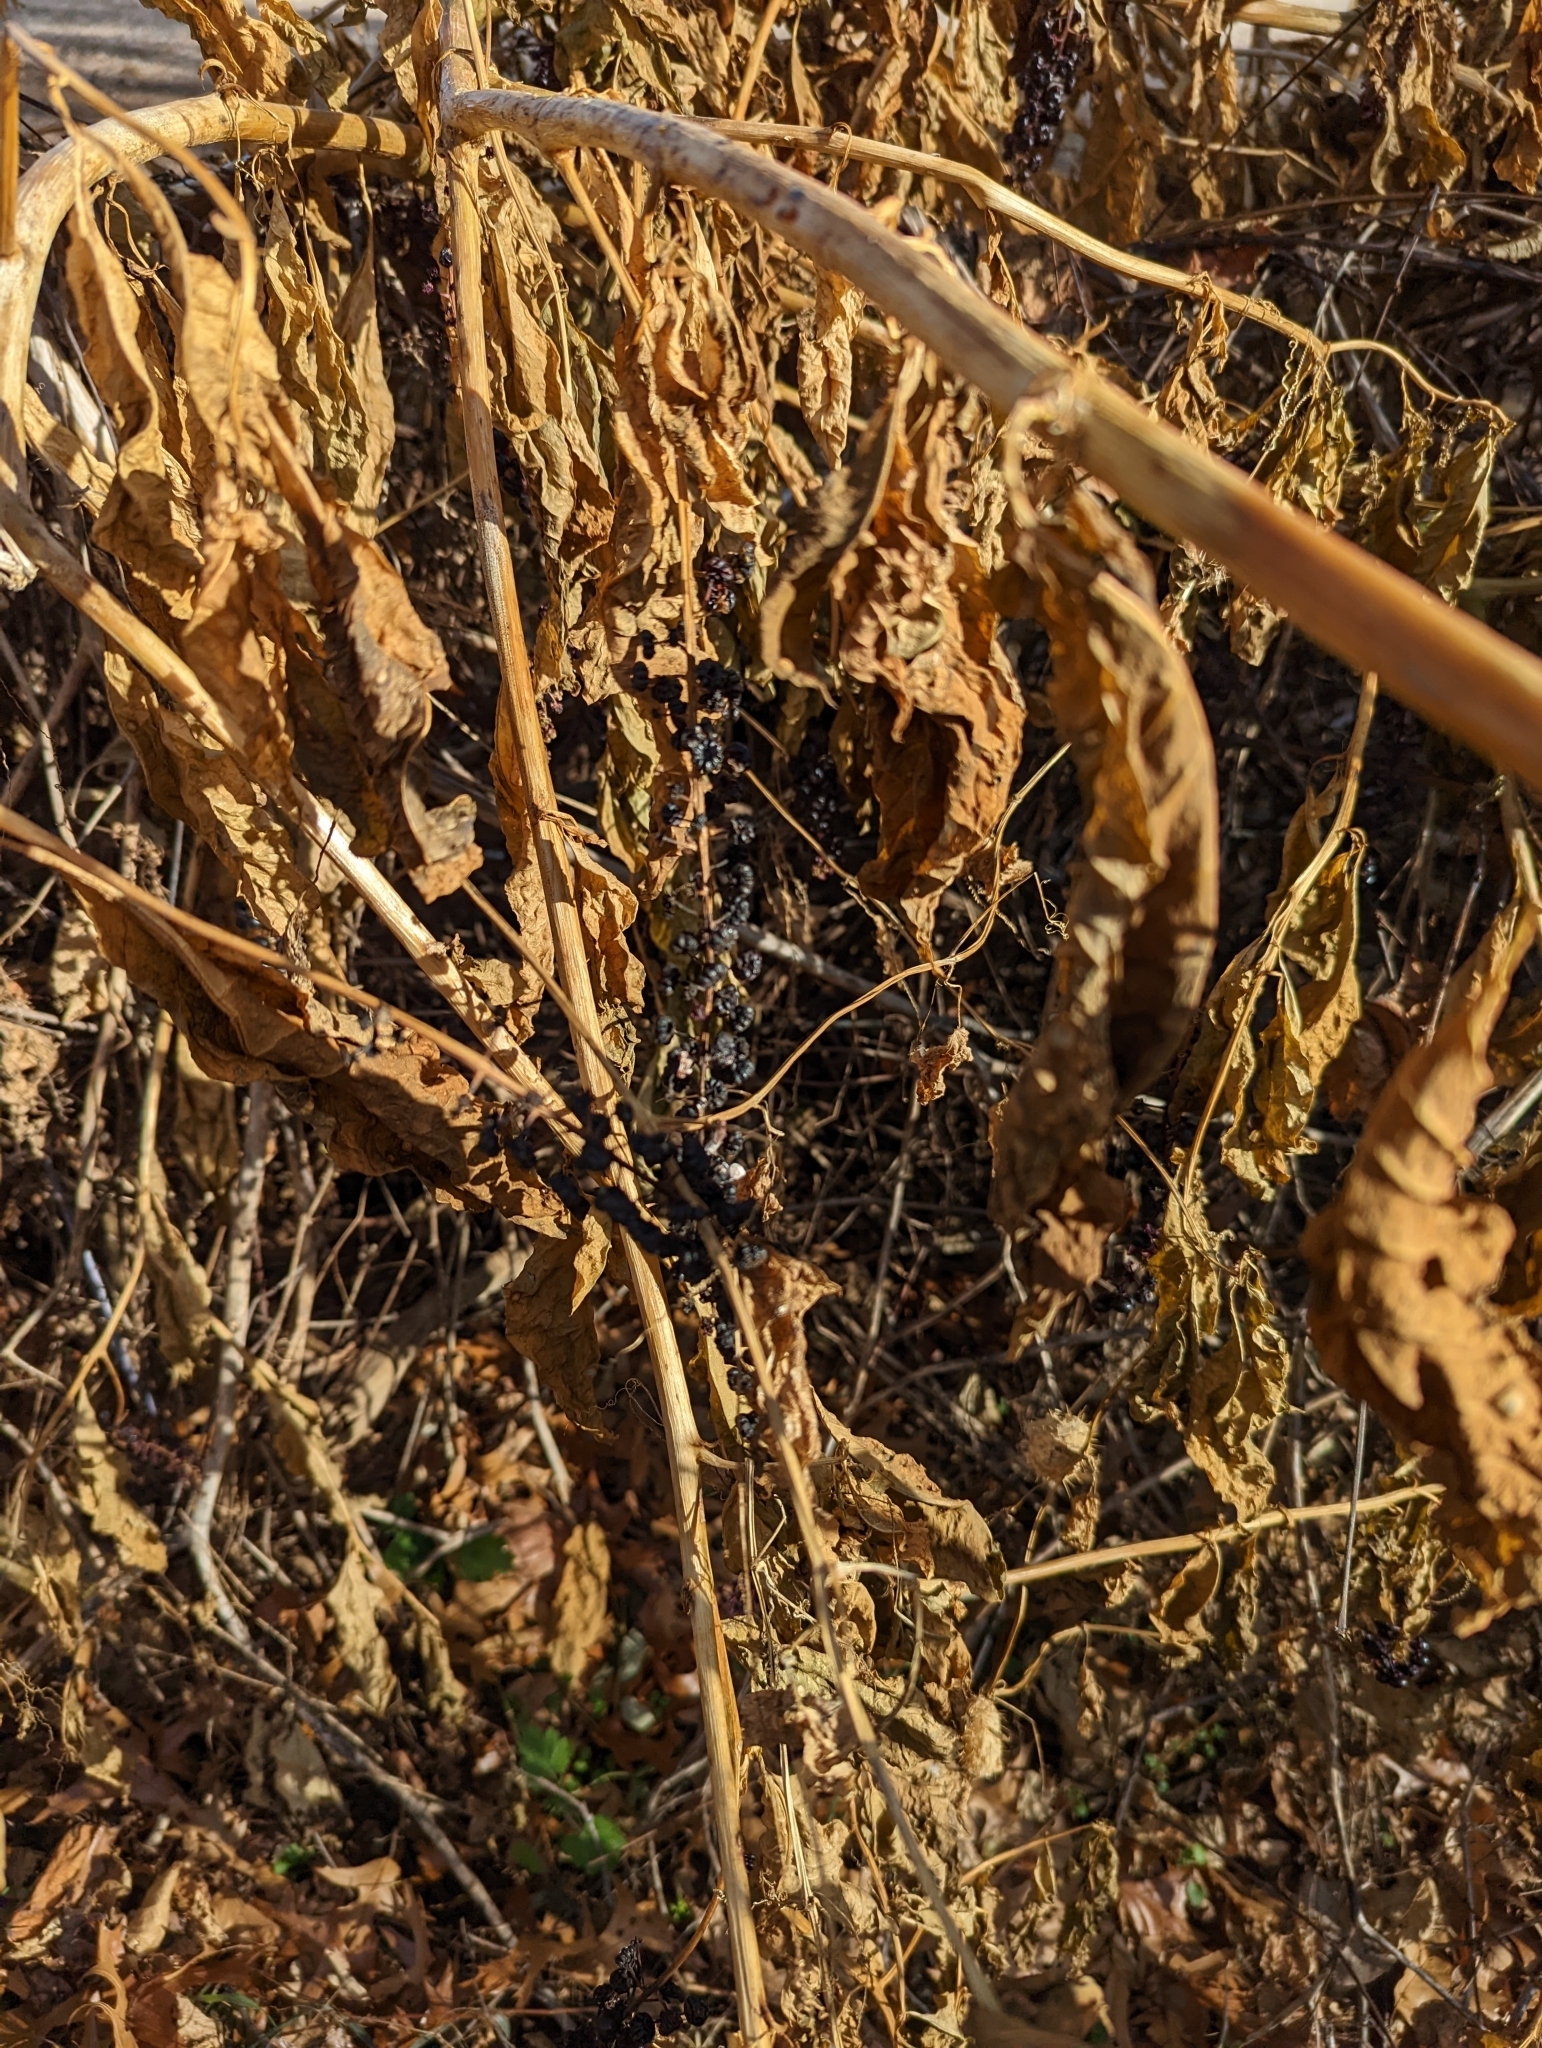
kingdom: Plantae
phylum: Tracheophyta
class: Magnoliopsida
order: Caryophyllales
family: Phytolaccaceae
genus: Phytolacca
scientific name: Phytolacca americana
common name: American pokeweed
